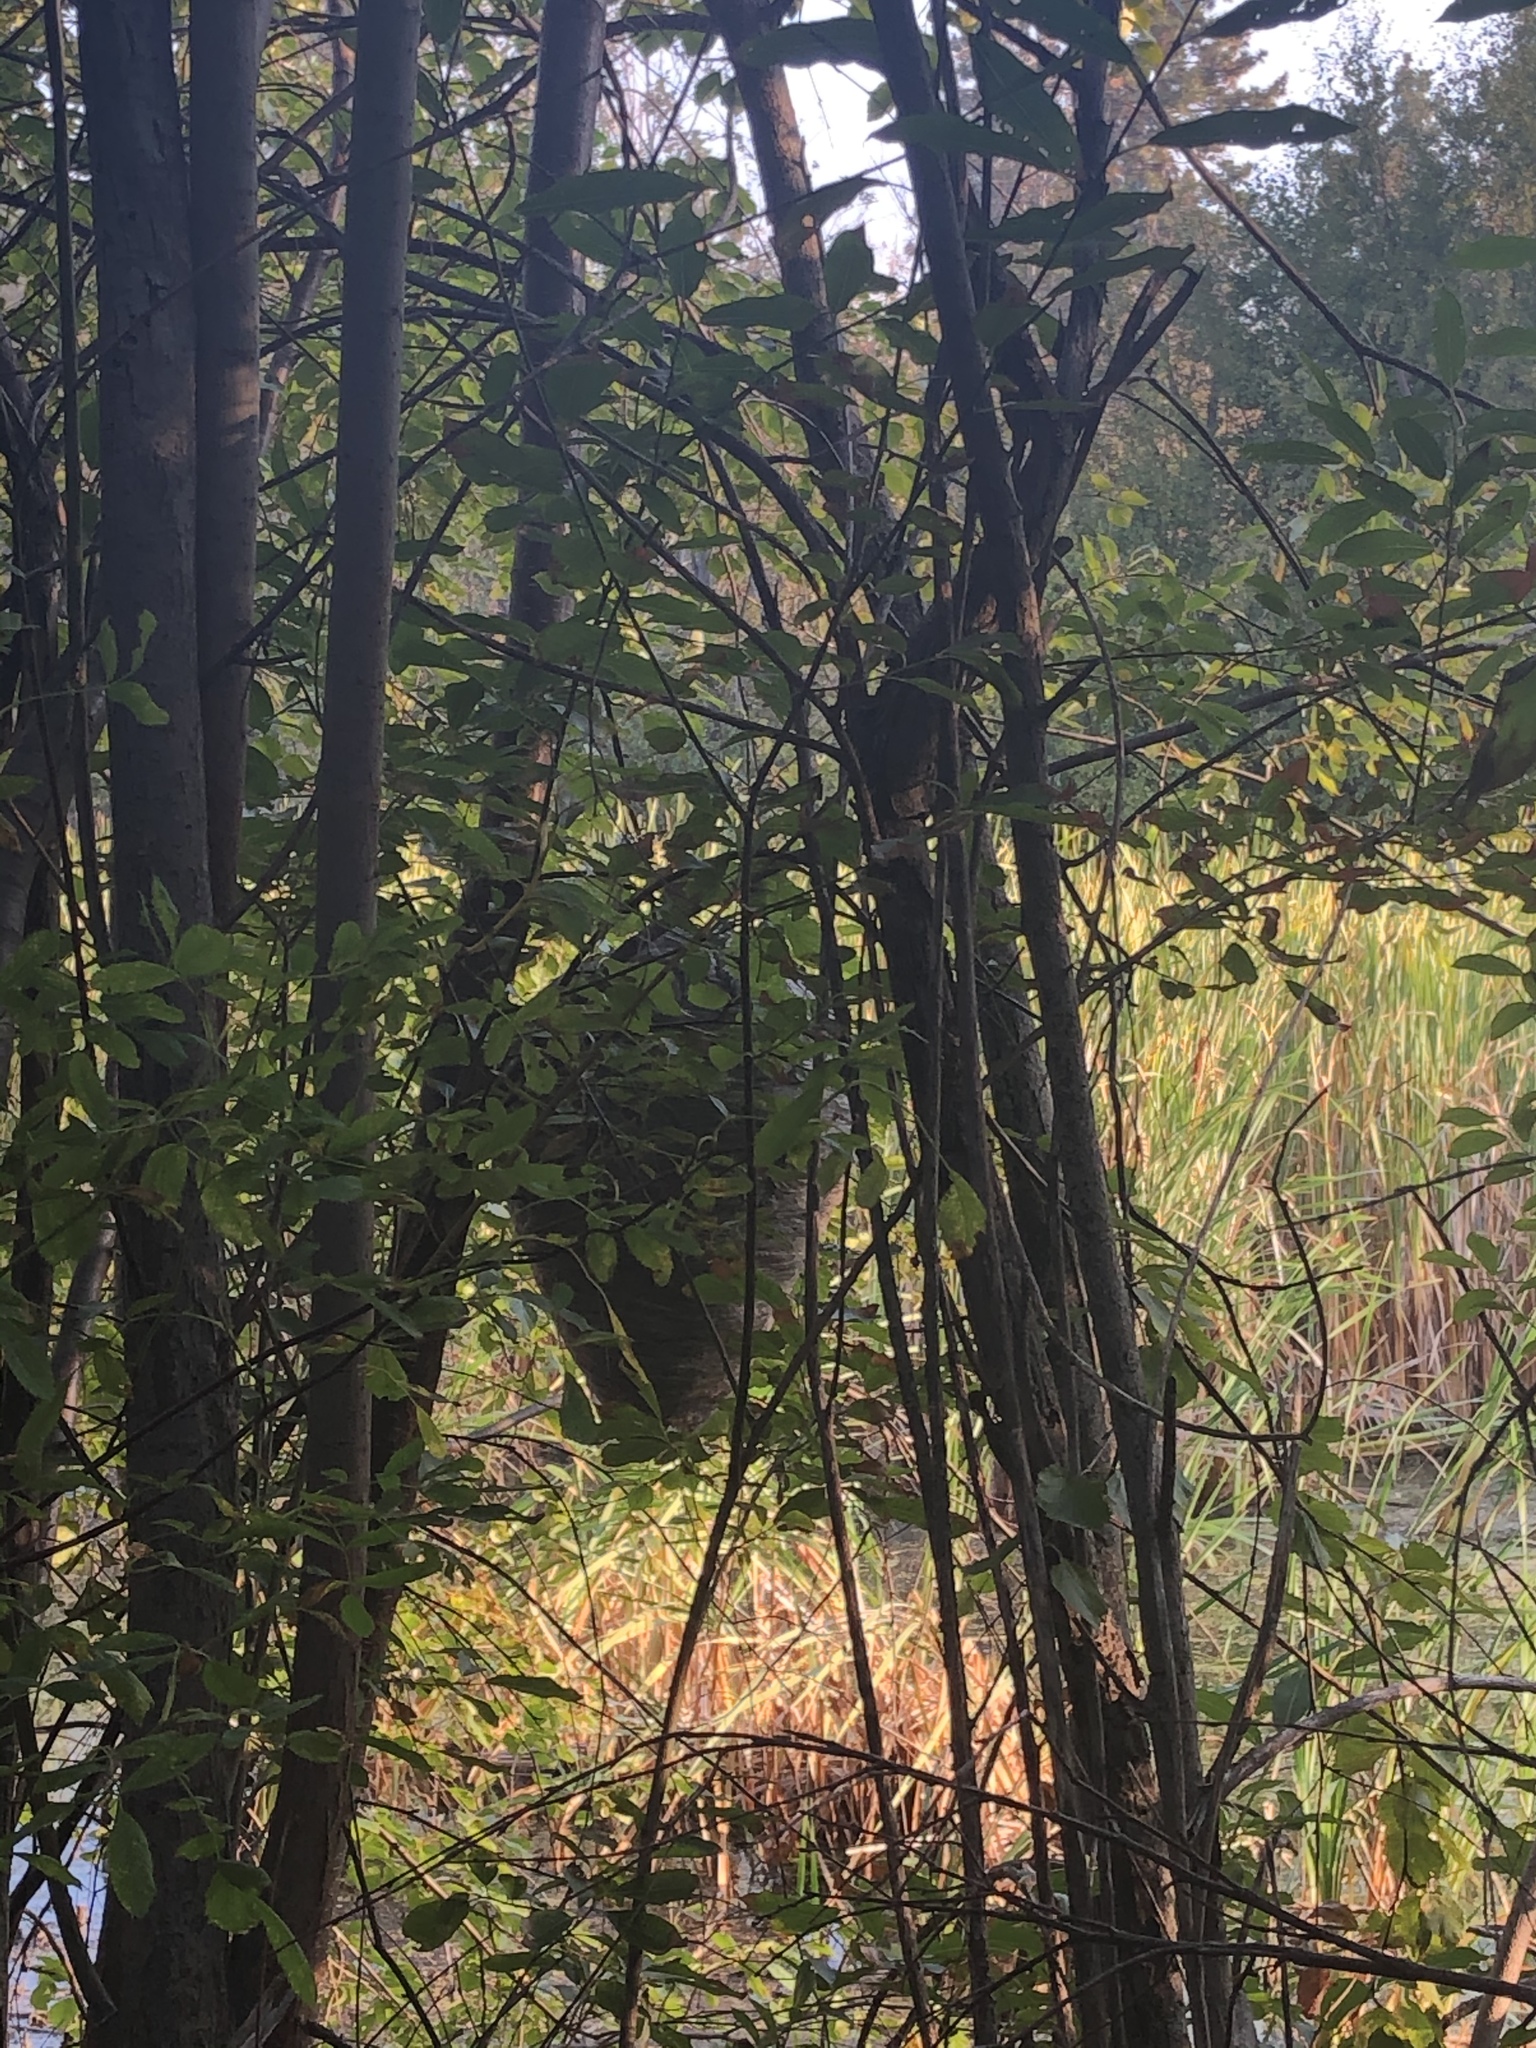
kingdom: Animalia
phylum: Arthropoda
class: Insecta
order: Hymenoptera
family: Vespidae
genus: Dolichovespula
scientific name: Dolichovespula
